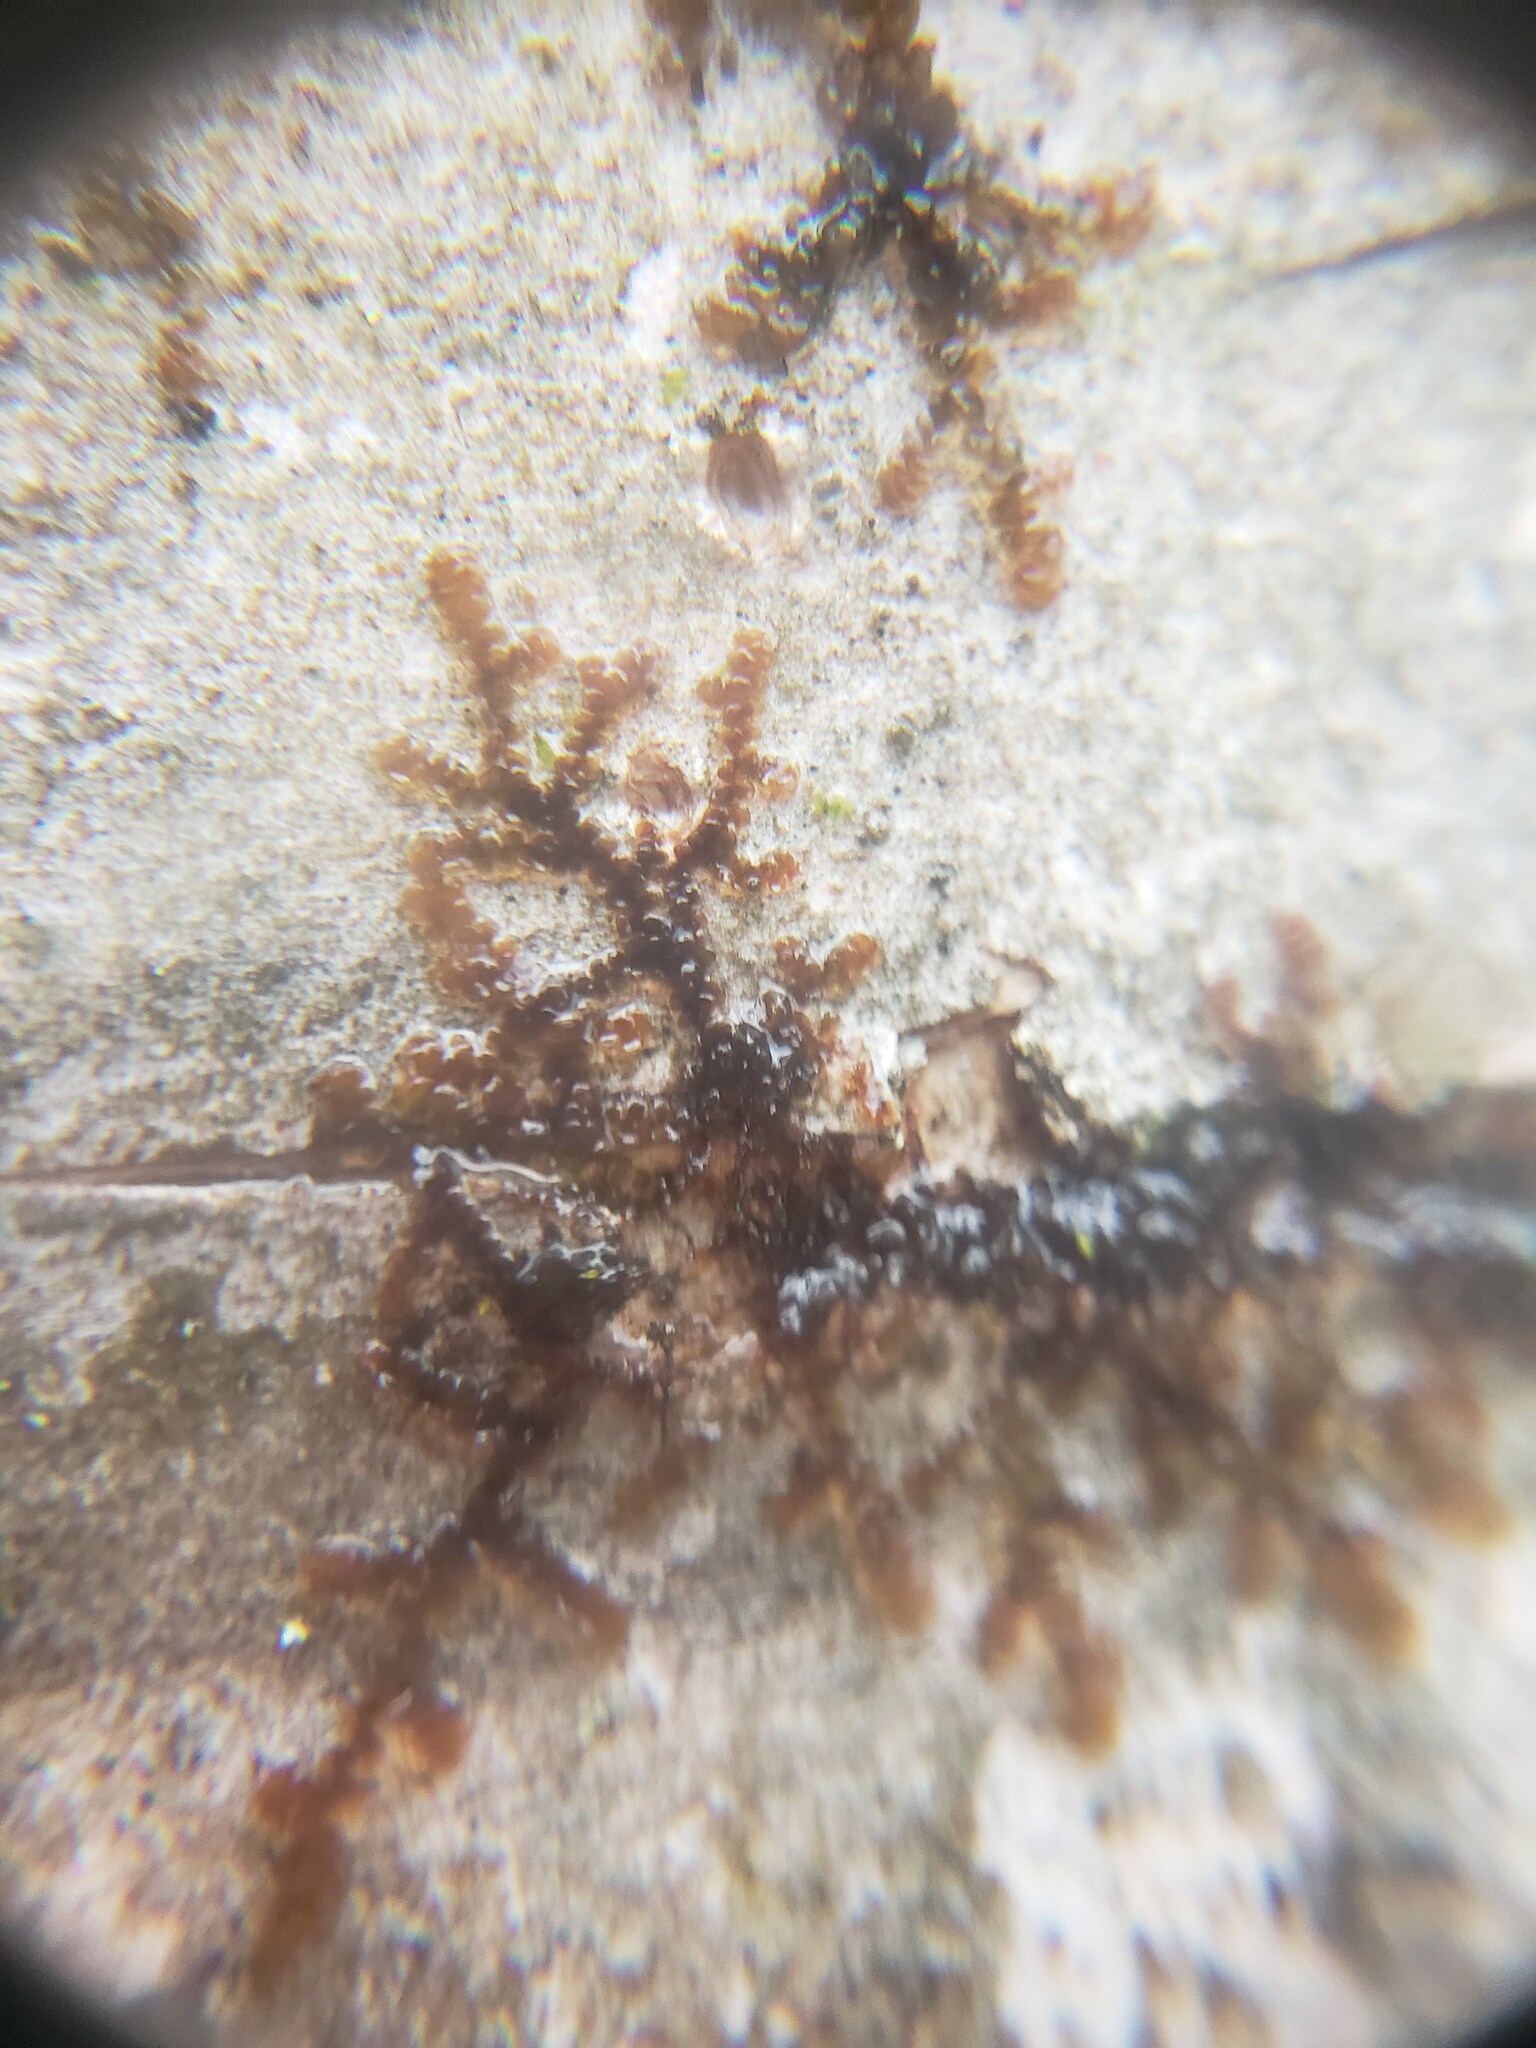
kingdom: Plantae
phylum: Marchantiophyta
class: Jungermanniopsida
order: Porellales
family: Frullaniaceae
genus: Frullania
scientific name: Frullania eboracensis
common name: New york scalewort
